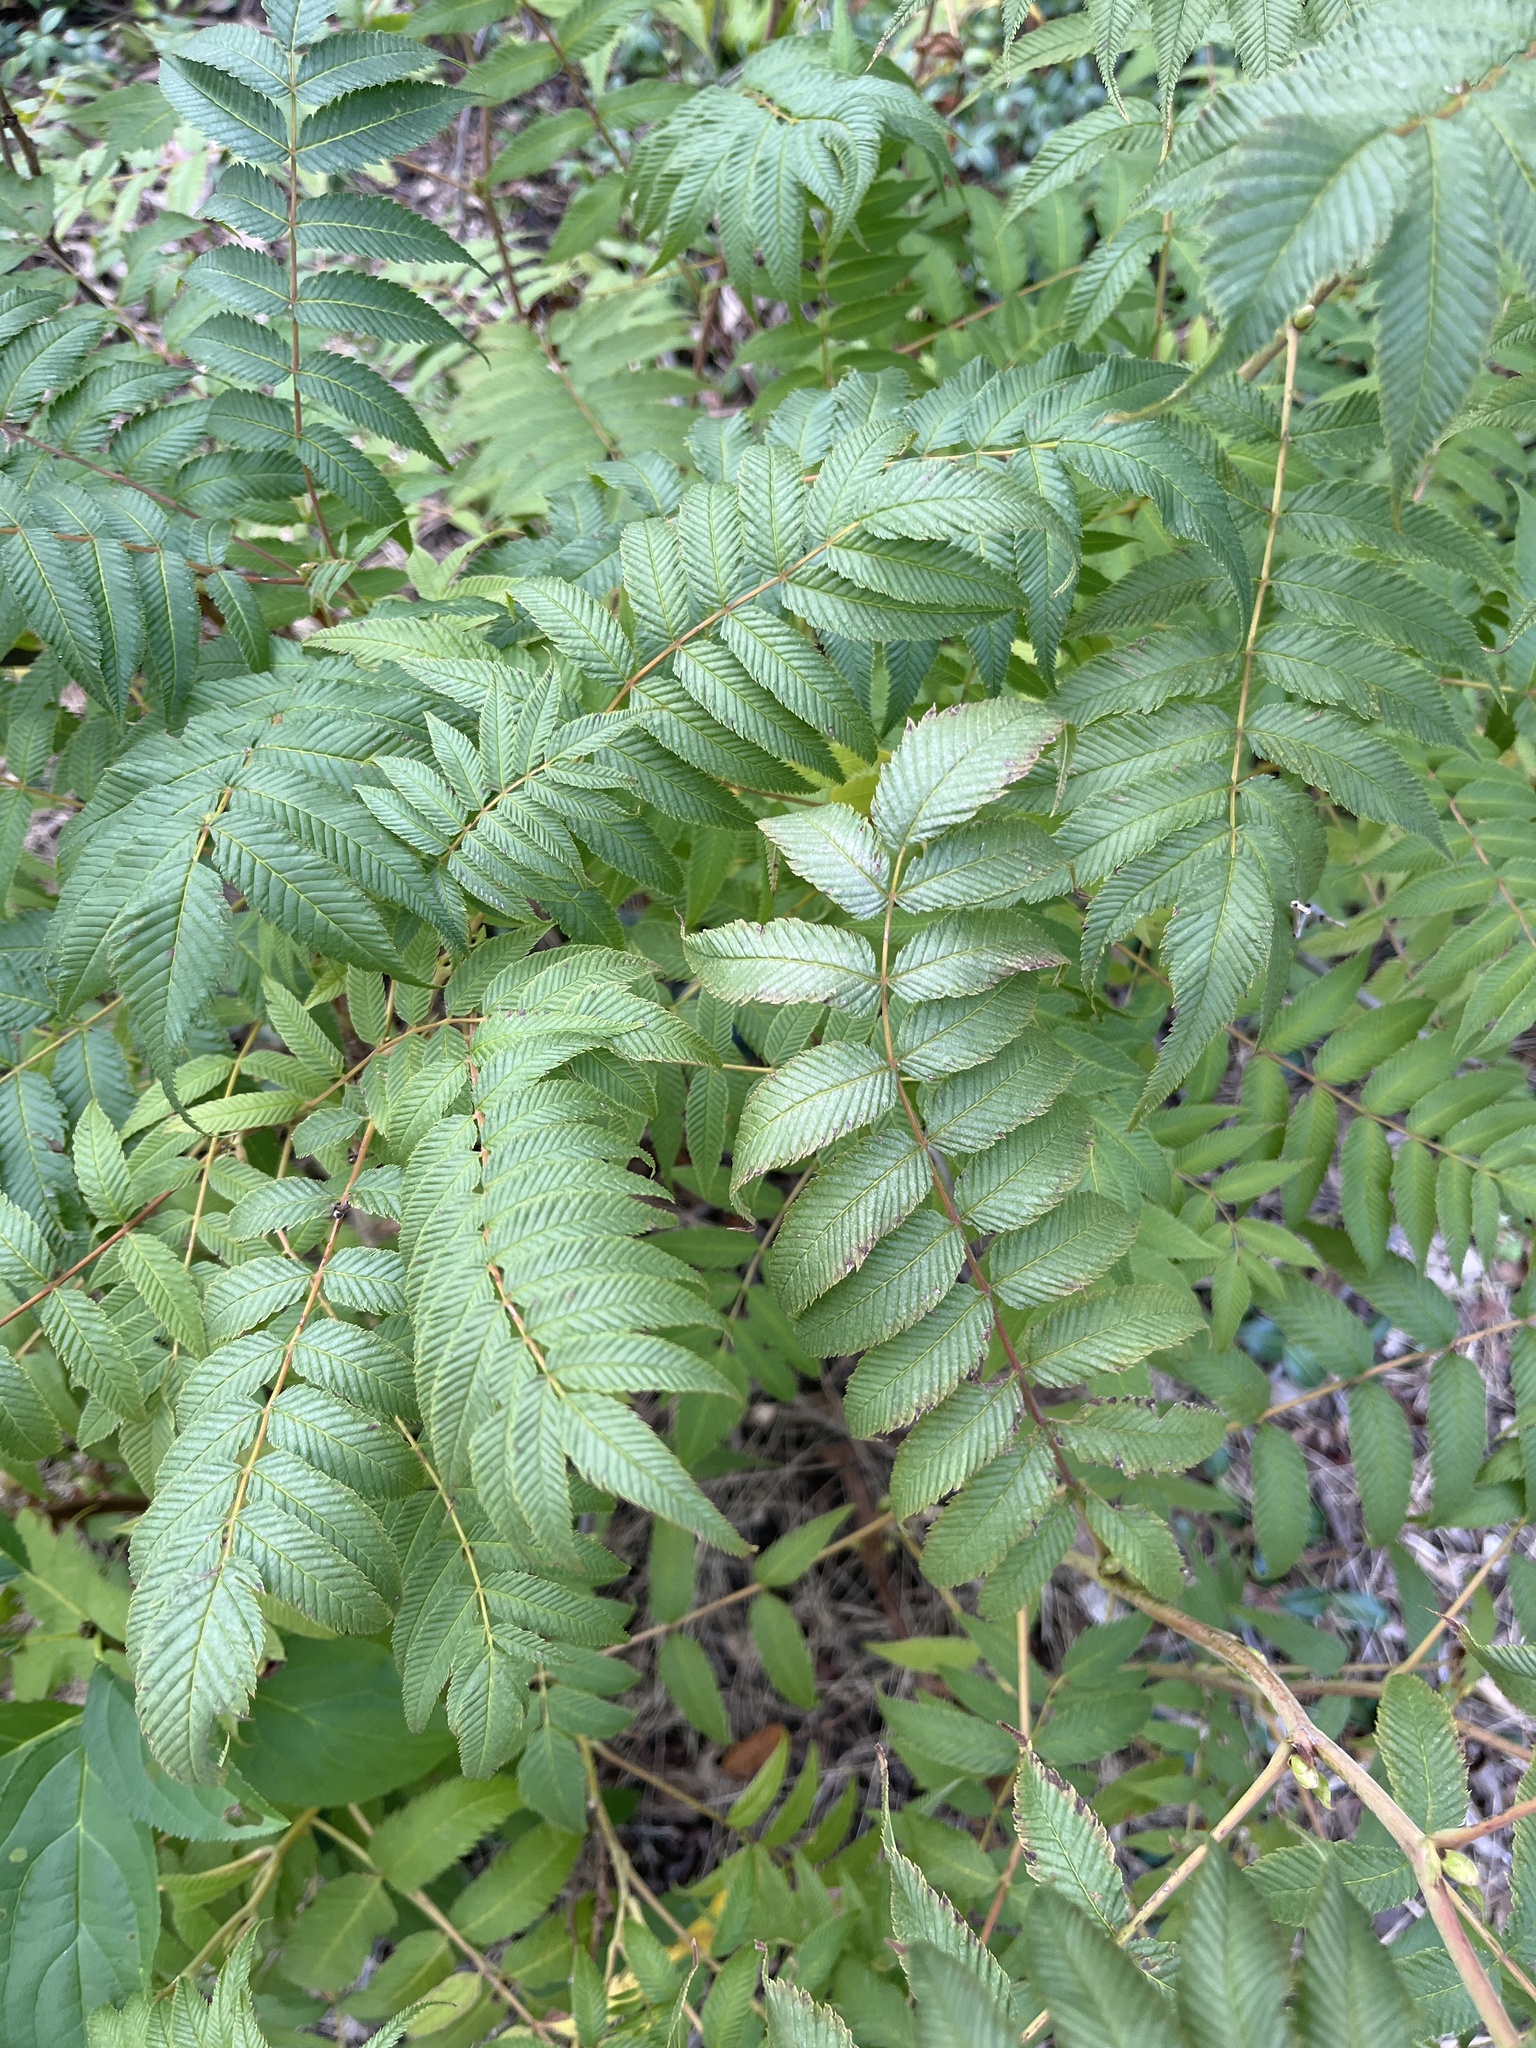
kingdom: Plantae
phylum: Tracheophyta
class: Magnoliopsida
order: Rosales
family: Rosaceae
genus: Sorbaria
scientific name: Sorbaria sorbifolia
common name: False spiraea
